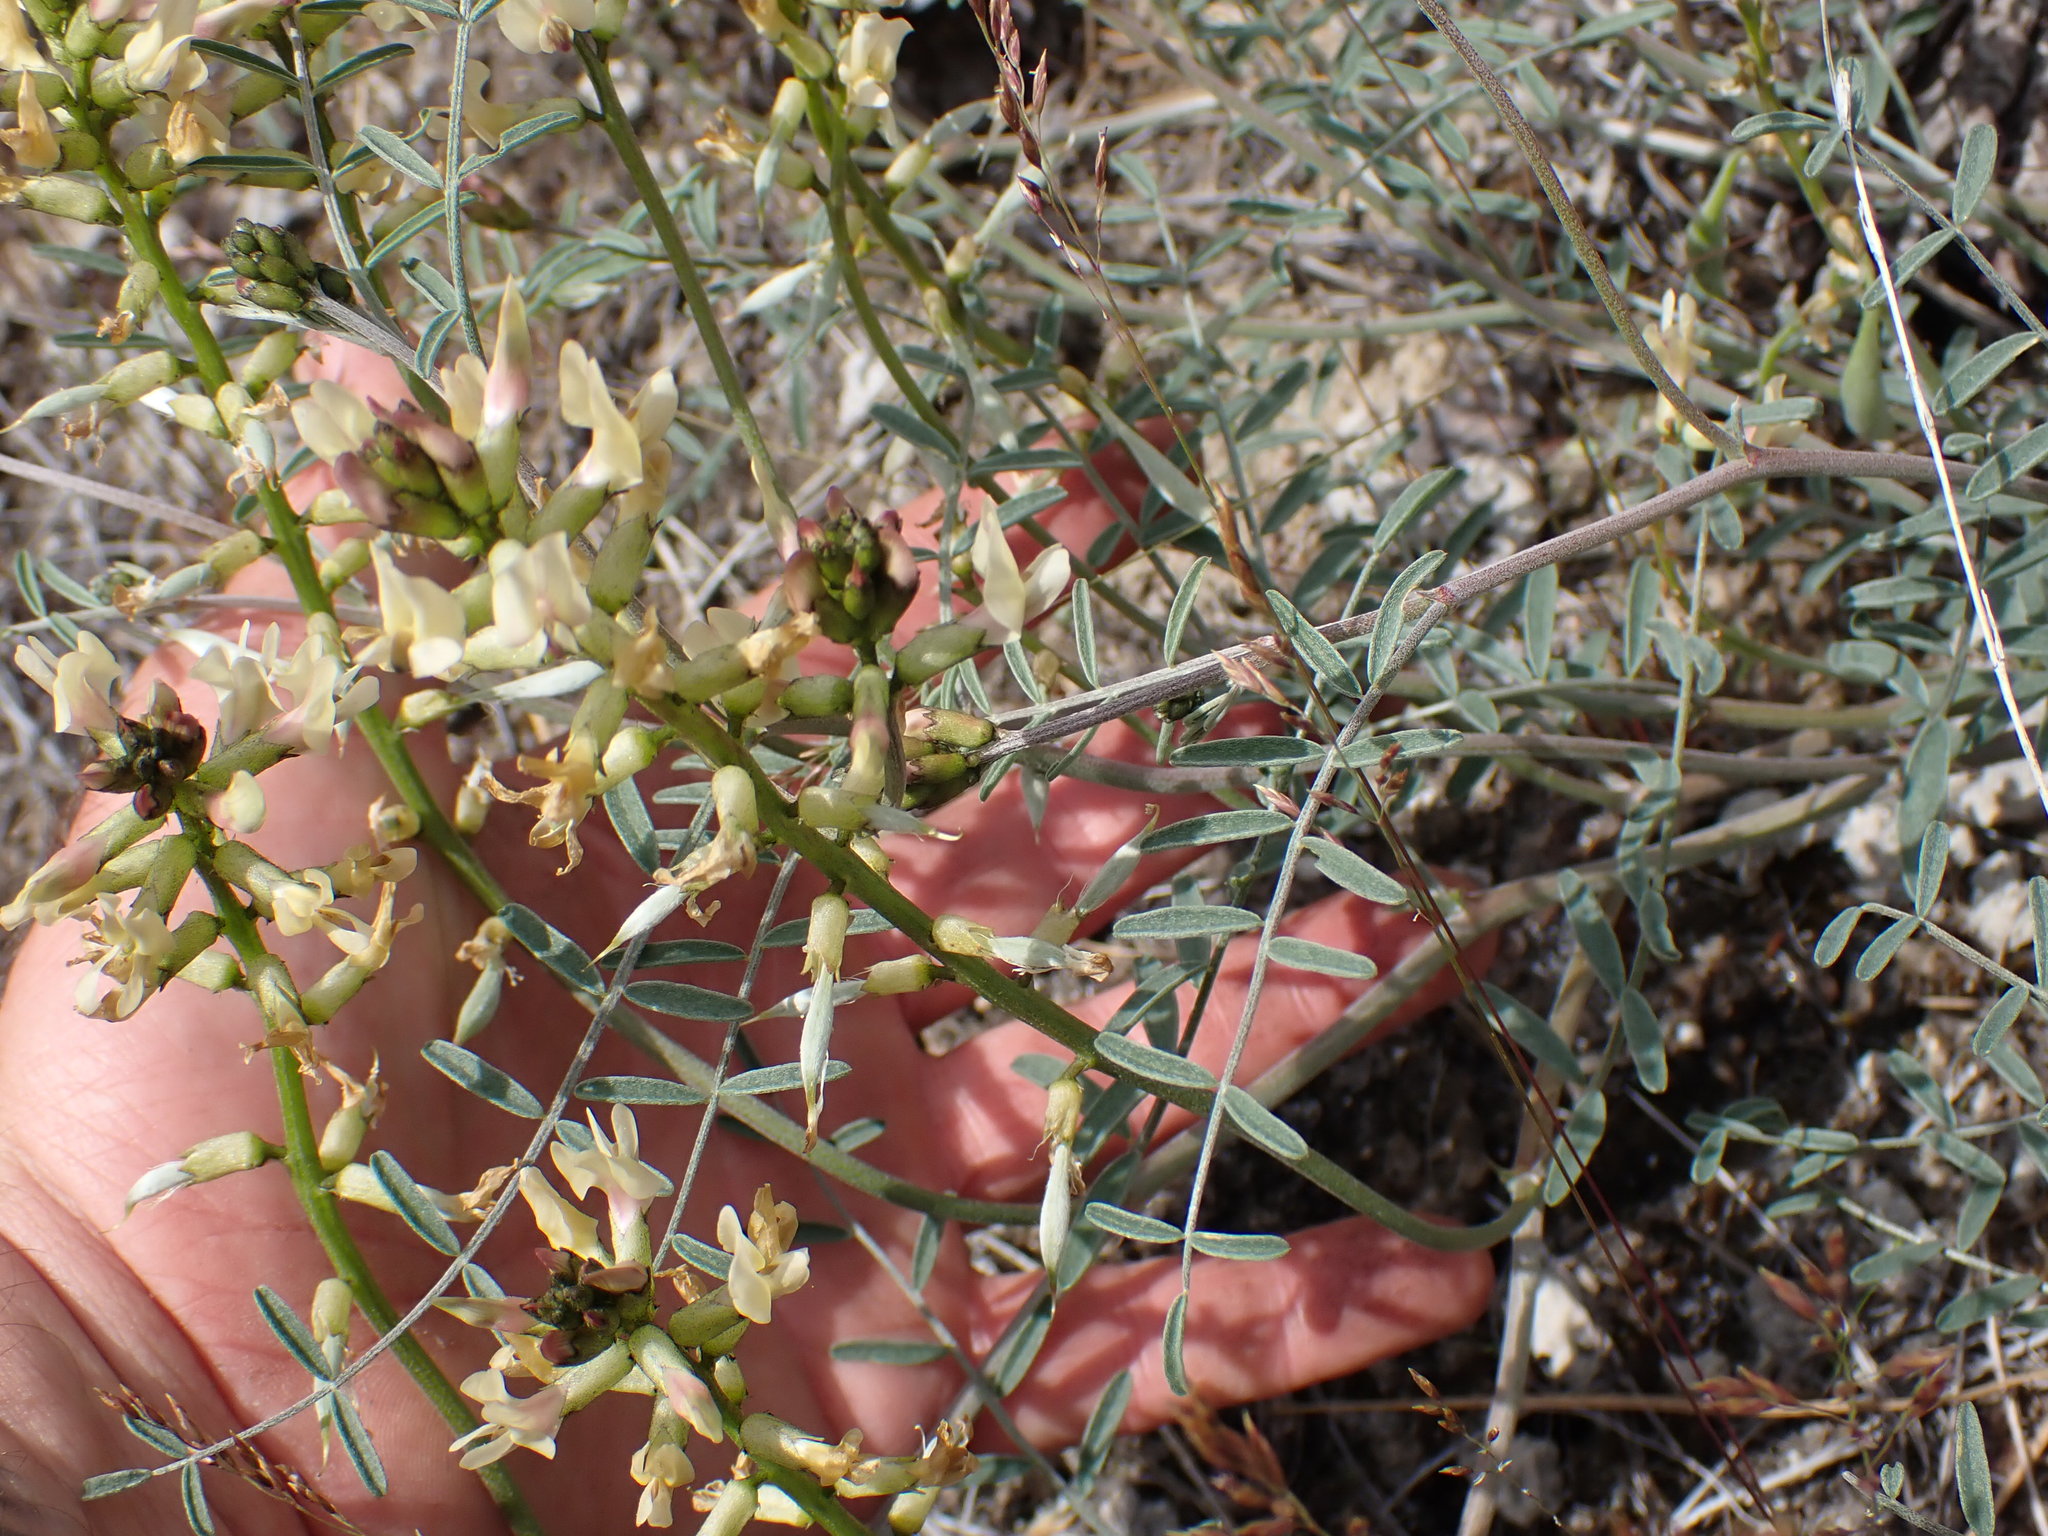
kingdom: Plantae
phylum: Tracheophyta
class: Magnoliopsida
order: Fabales
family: Fabaceae
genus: Astragalus
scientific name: Astragalus sclerocarpus
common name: The dalles milk-vetch
